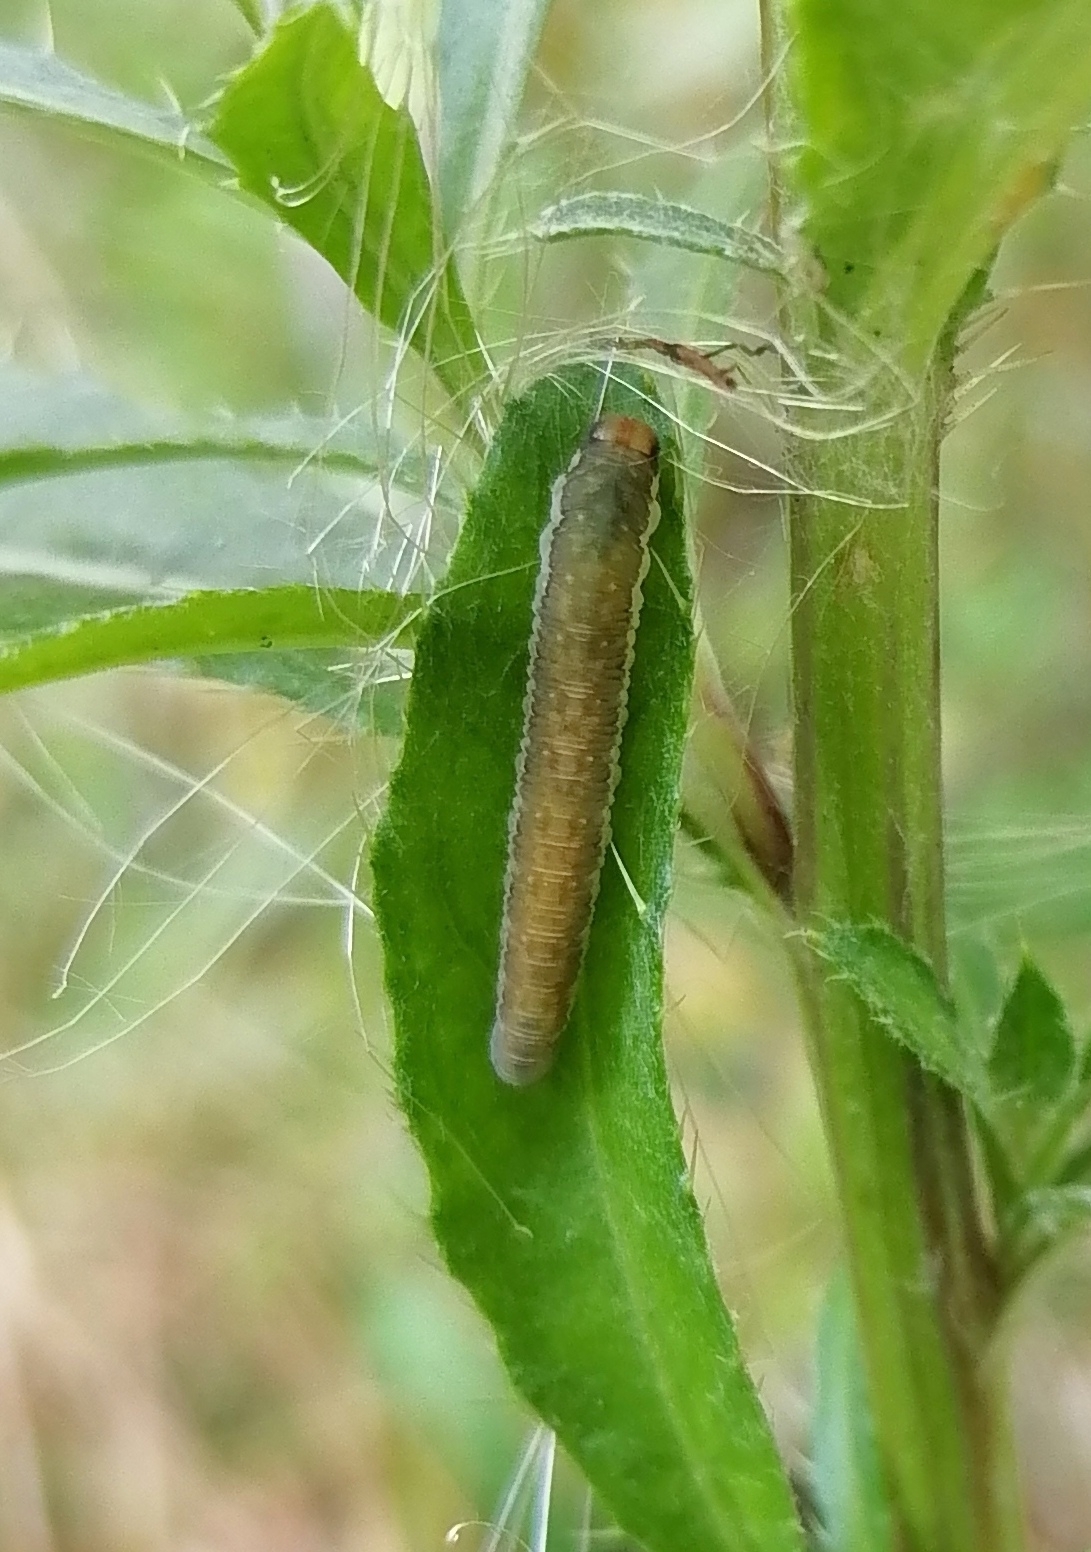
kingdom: Animalia
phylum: Arthropoda
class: Insecta
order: Hymenoptera
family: Tenthredinidae
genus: Pachyprotasis
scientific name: Pachyprotasis antennata
